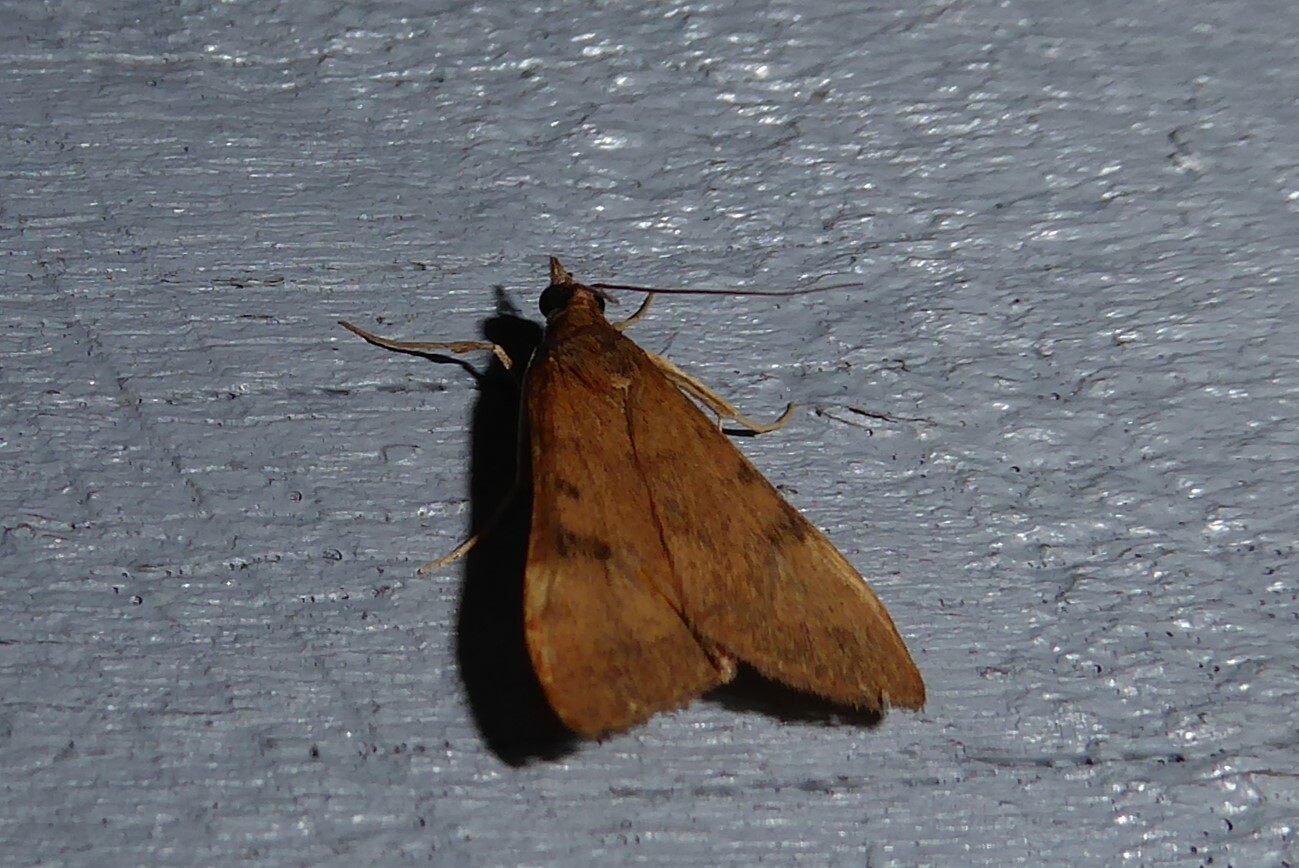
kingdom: Animalia
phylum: Arthropoda
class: Insecta
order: Lepidoptera
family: Crambidae
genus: Uresiphita
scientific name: Uresiphita
